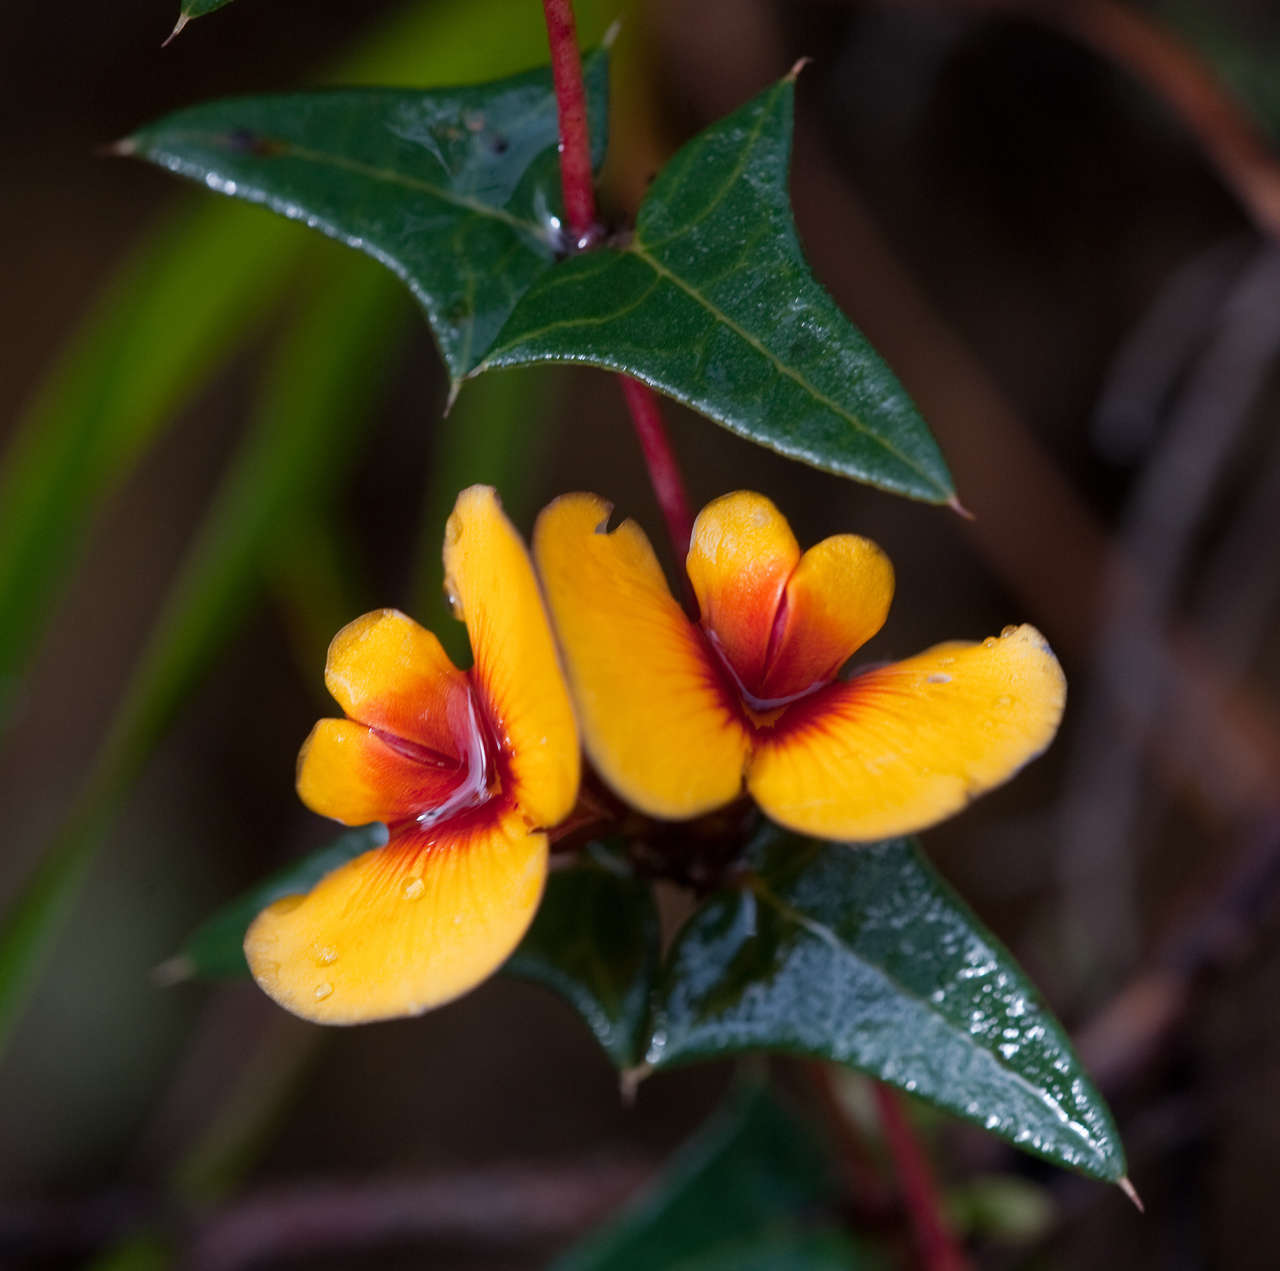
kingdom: Plantae
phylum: Tracheophyta
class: Magnoliopsida
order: Fabales
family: Fabaceae
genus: Platylobium
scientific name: Platylobium obtusangulum
